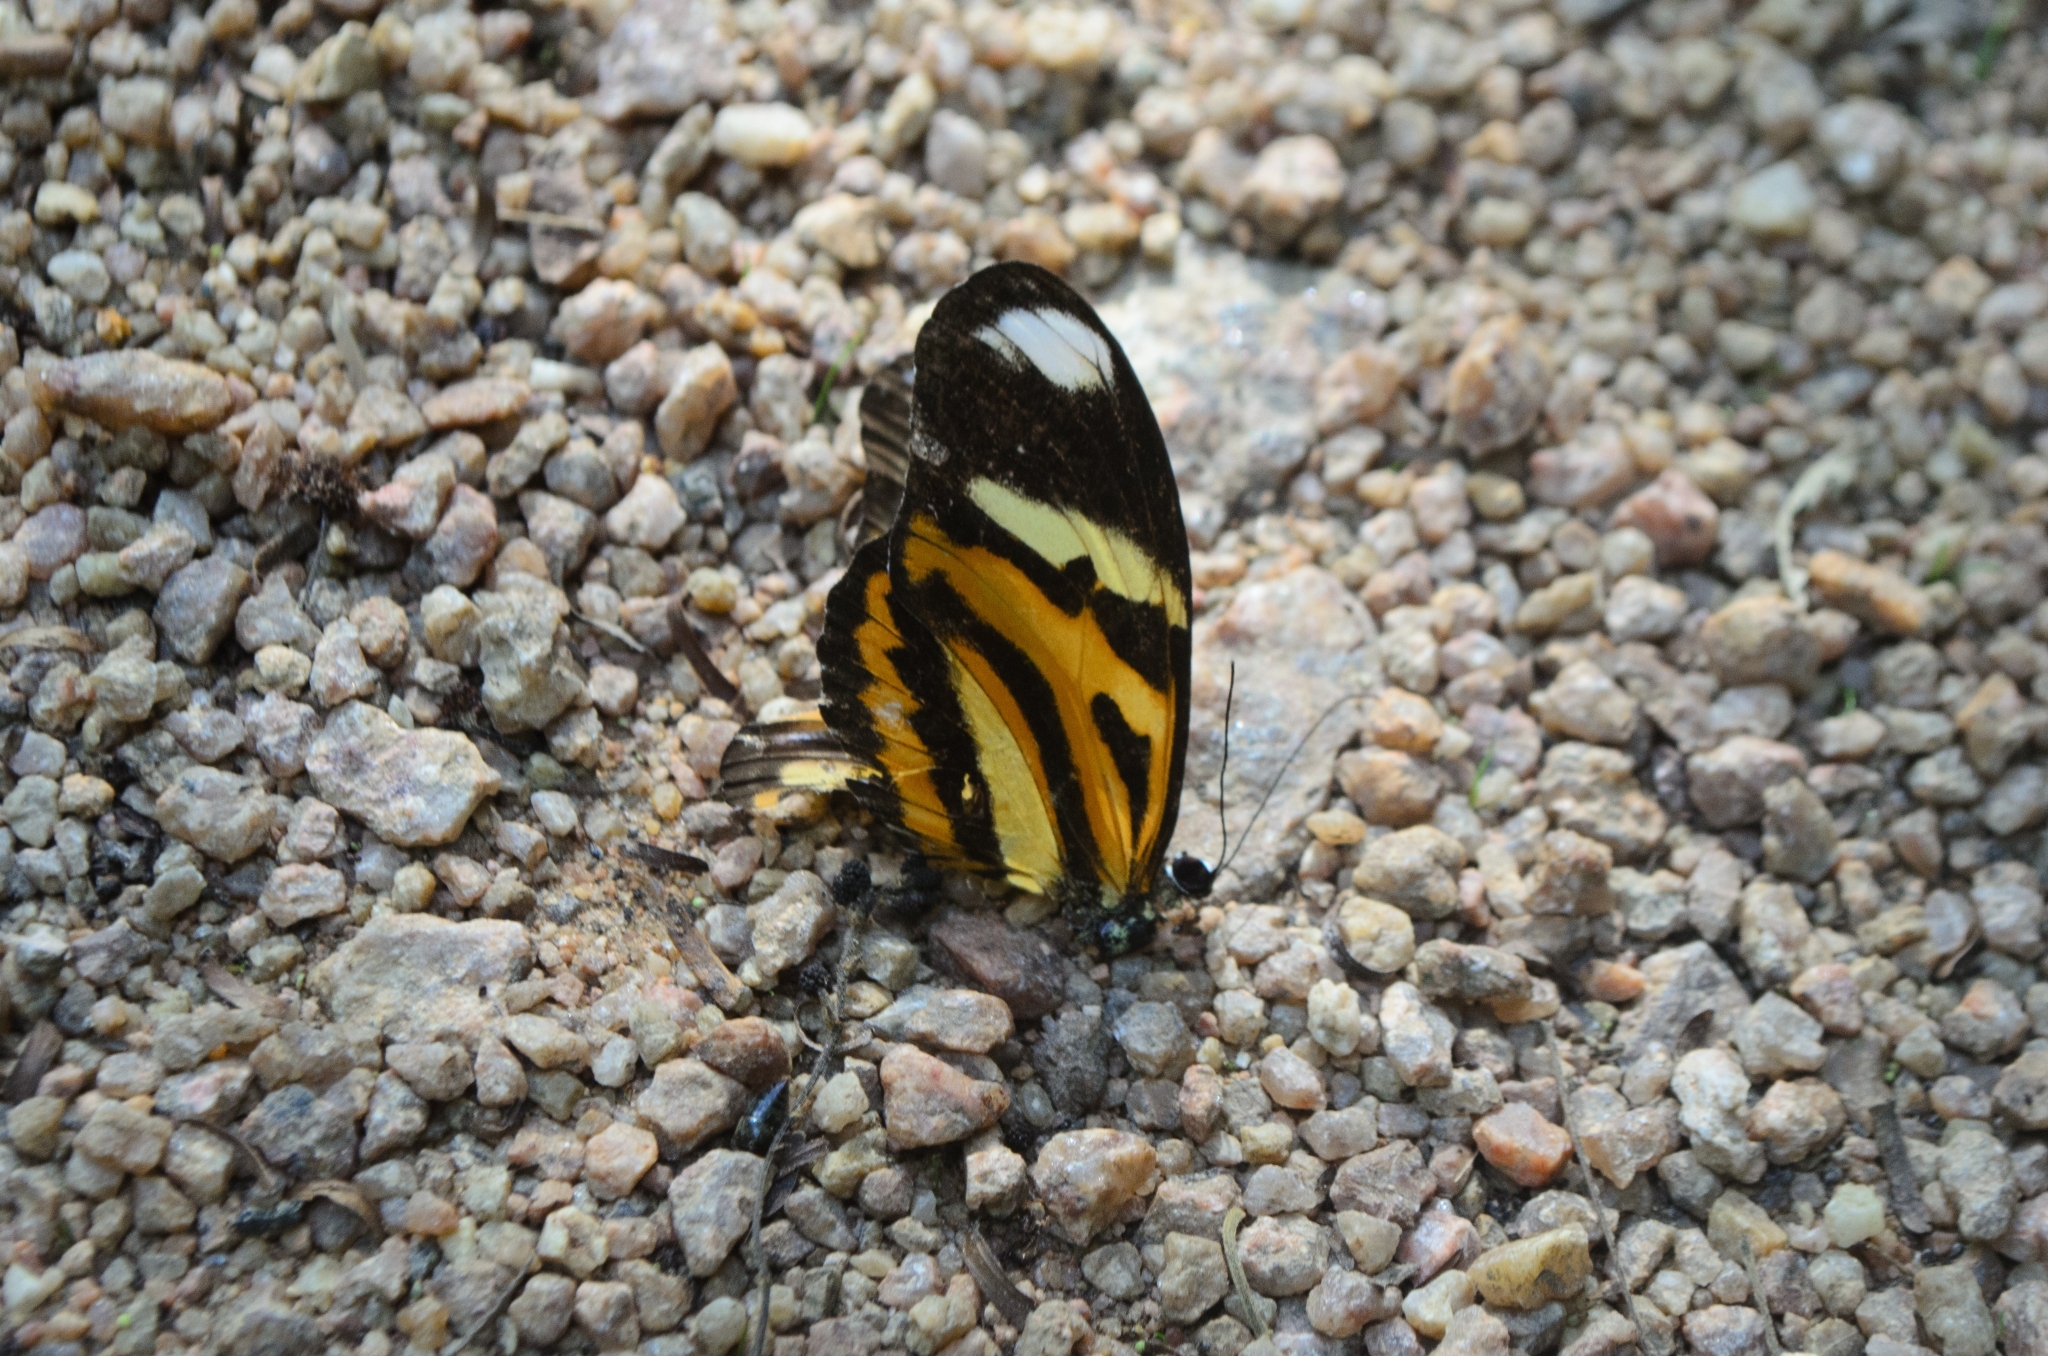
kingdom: Animalia
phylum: Arthropoda
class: Insecta
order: Lepidoptera
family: Nymphalidae
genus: Heliconius
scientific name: Heliconius ethilla
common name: Ethilia longwing
